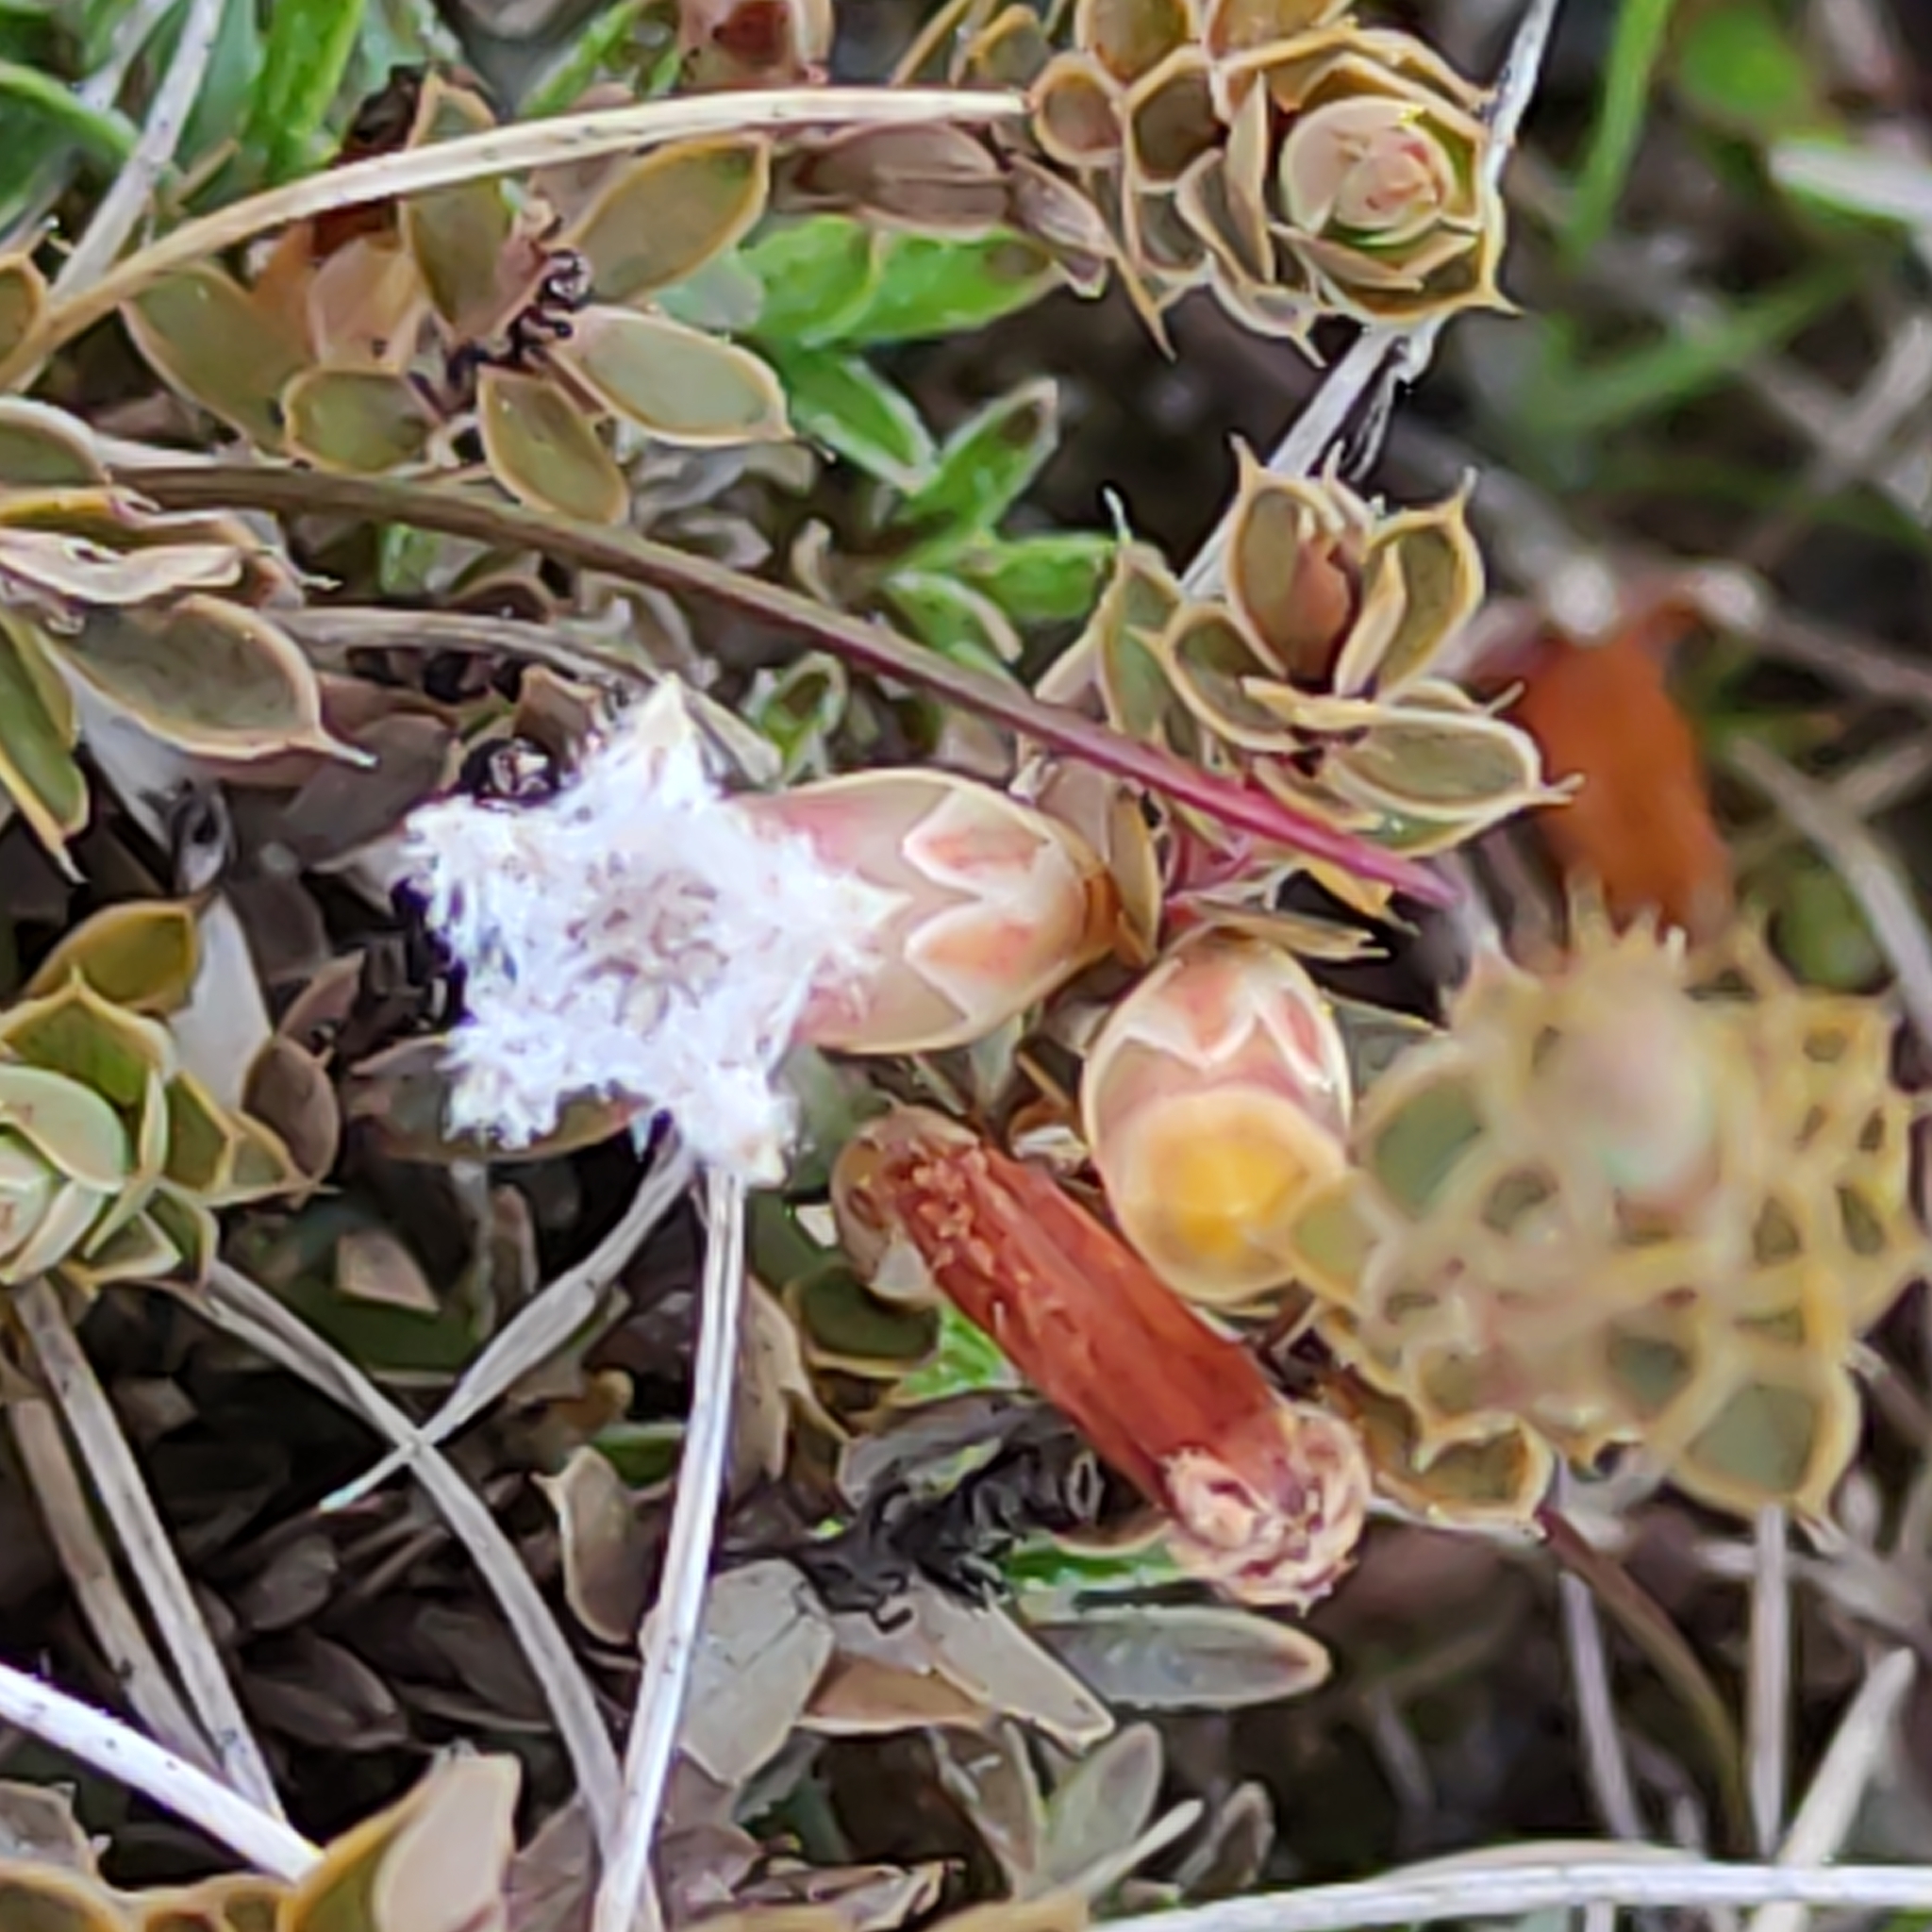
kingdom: Plantae
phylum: Tracheophyta
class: Magnoliopsida
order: Ericales
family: Ericaceae
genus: Styphelia
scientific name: Styphelia nesophila
